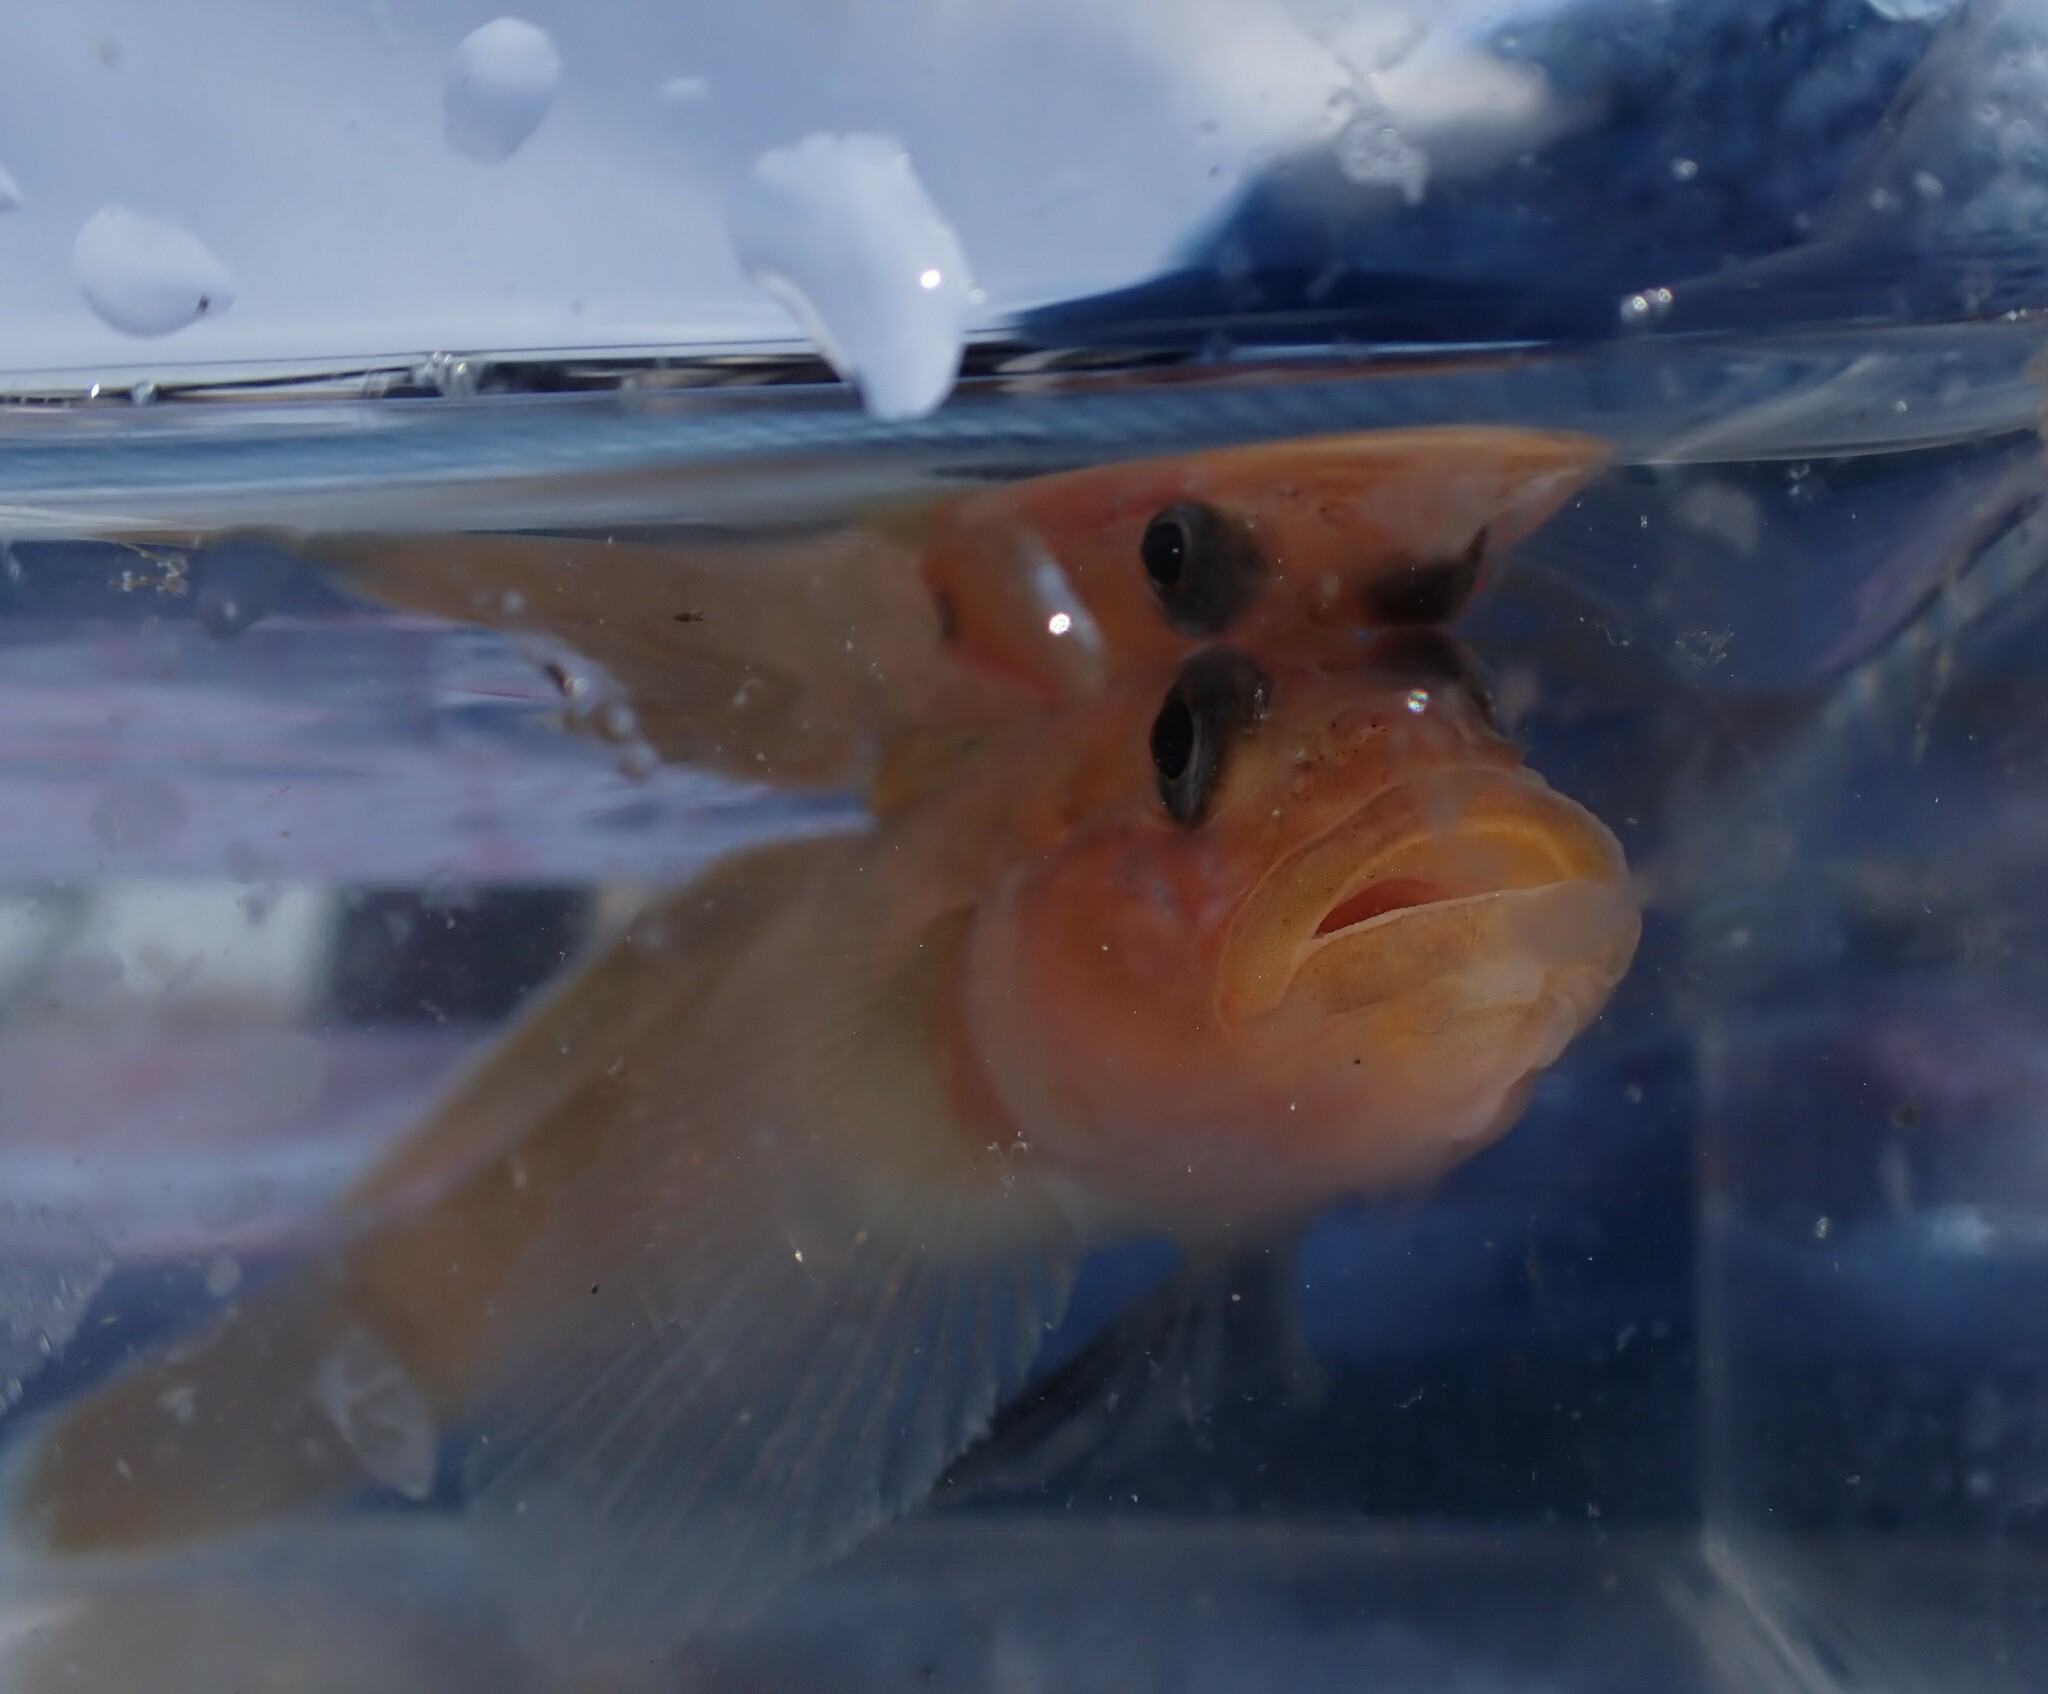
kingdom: Animalia
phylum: Chordata
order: Perciformes
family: Gobiidae
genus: Rhinogobiops
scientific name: Rhinogobiops nicholsii
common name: Blackeye goby
